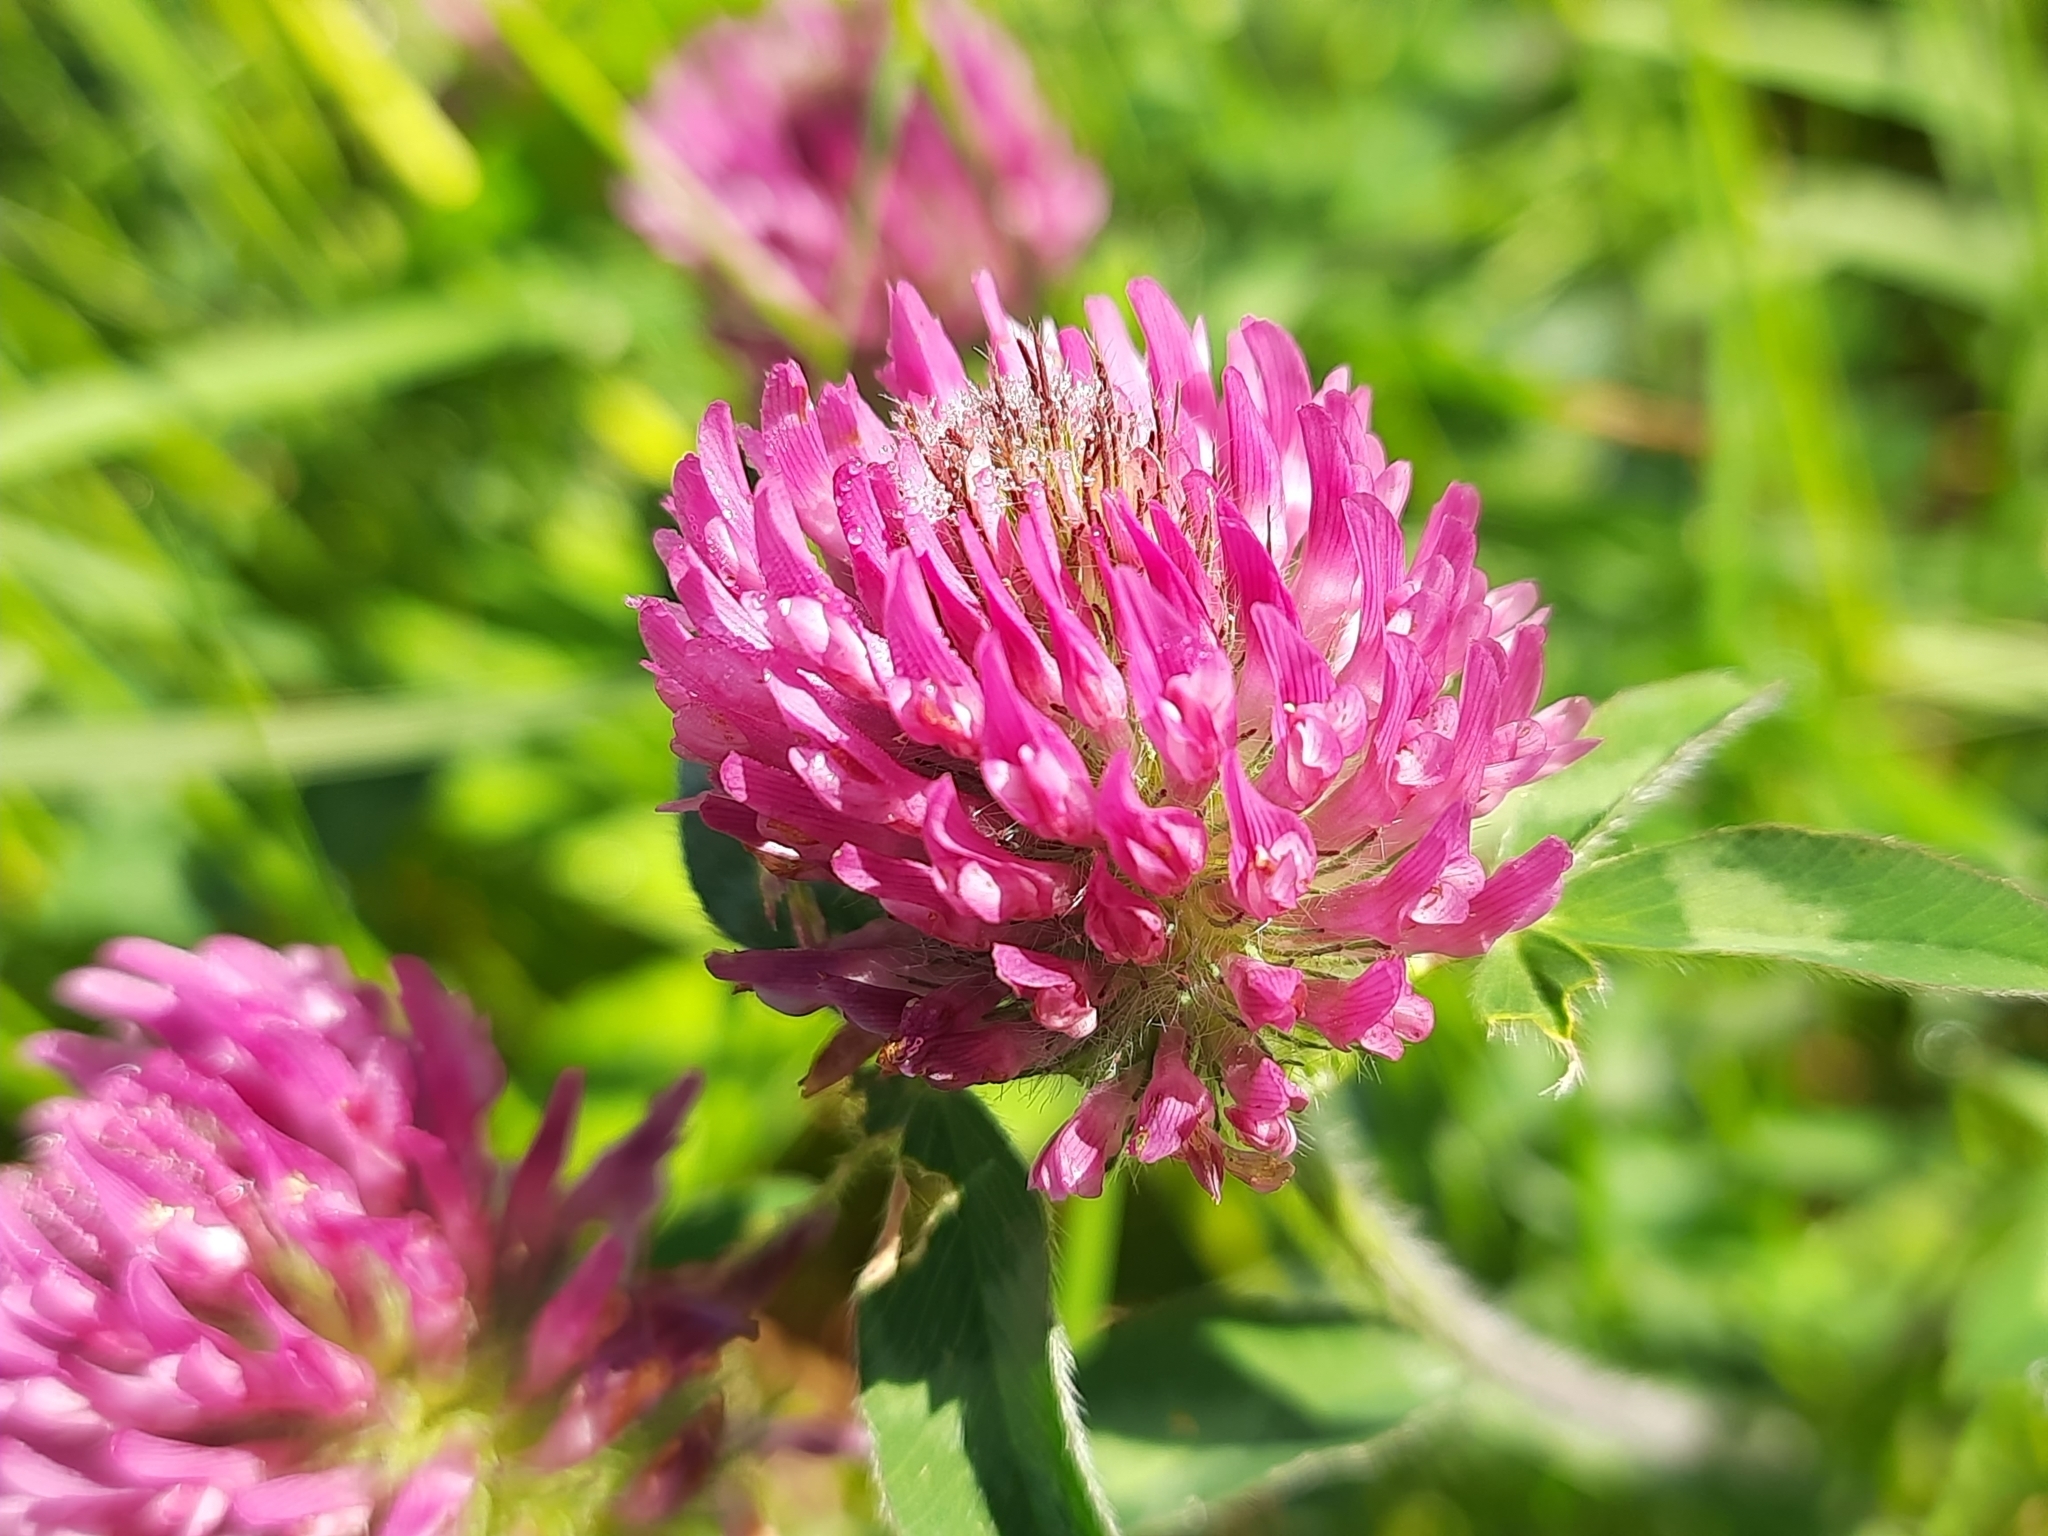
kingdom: Plantae
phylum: Tracheophyta
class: Magnoliopsida
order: Fabales
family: Fabaceae
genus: Trifolium
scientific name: Trifolium pratense
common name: Red clover
